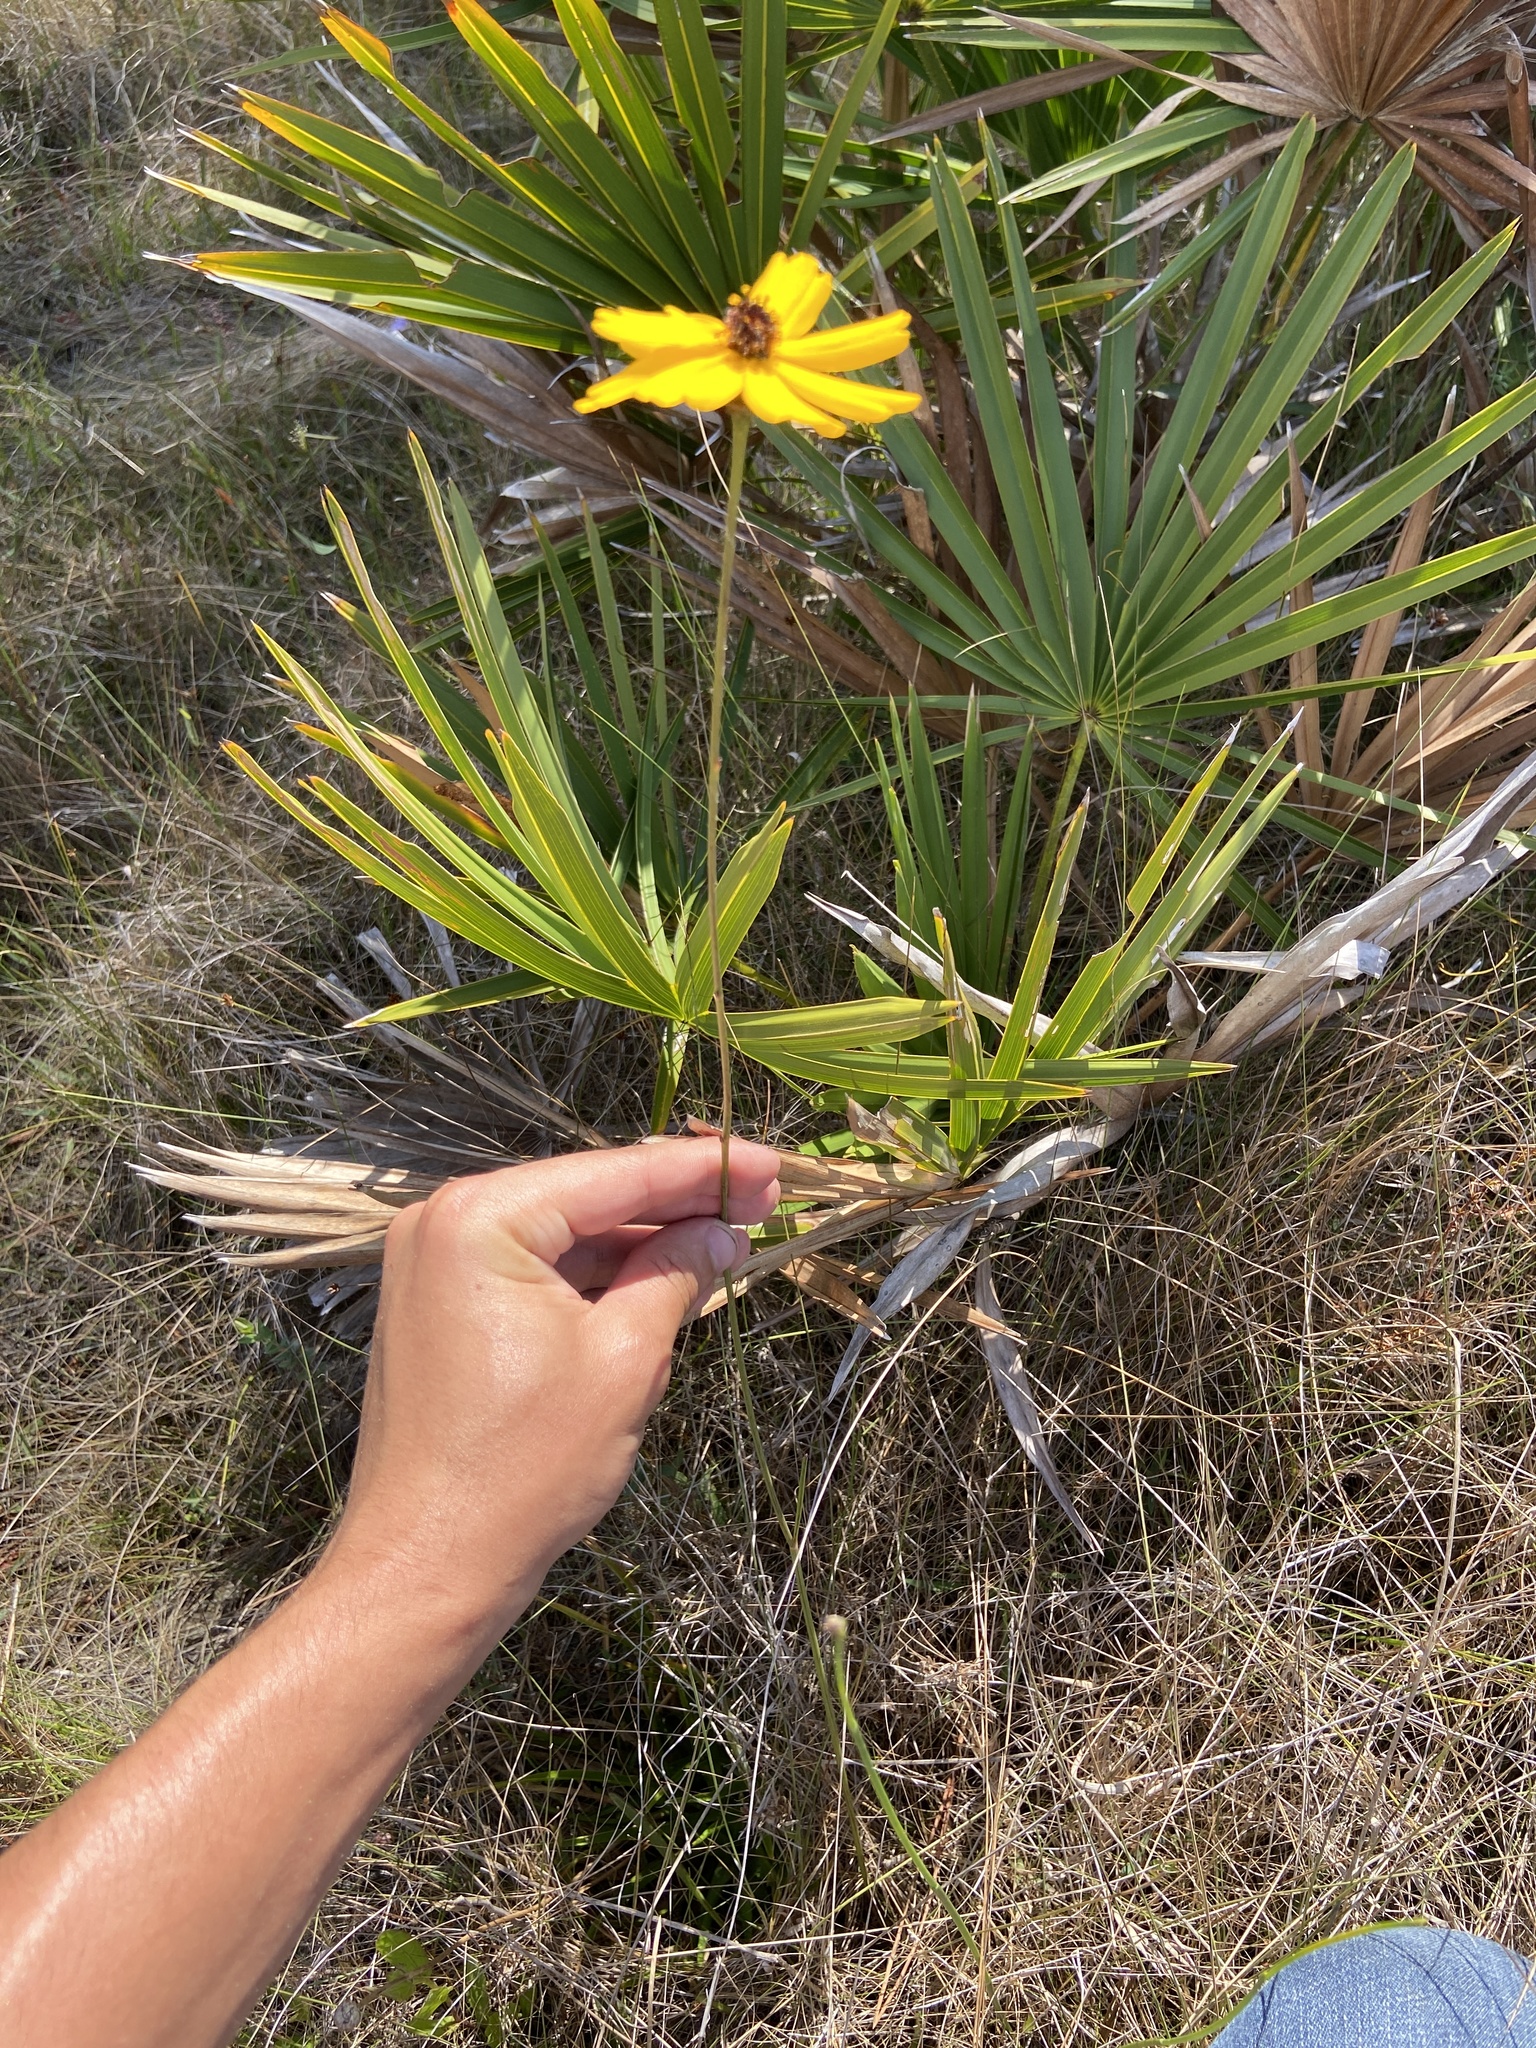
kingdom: Plantae
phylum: Tracheophyta
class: Magnoliopsida
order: Asterales
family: Asteraceae
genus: Coreopsis
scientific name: Coreopsis gladiata
